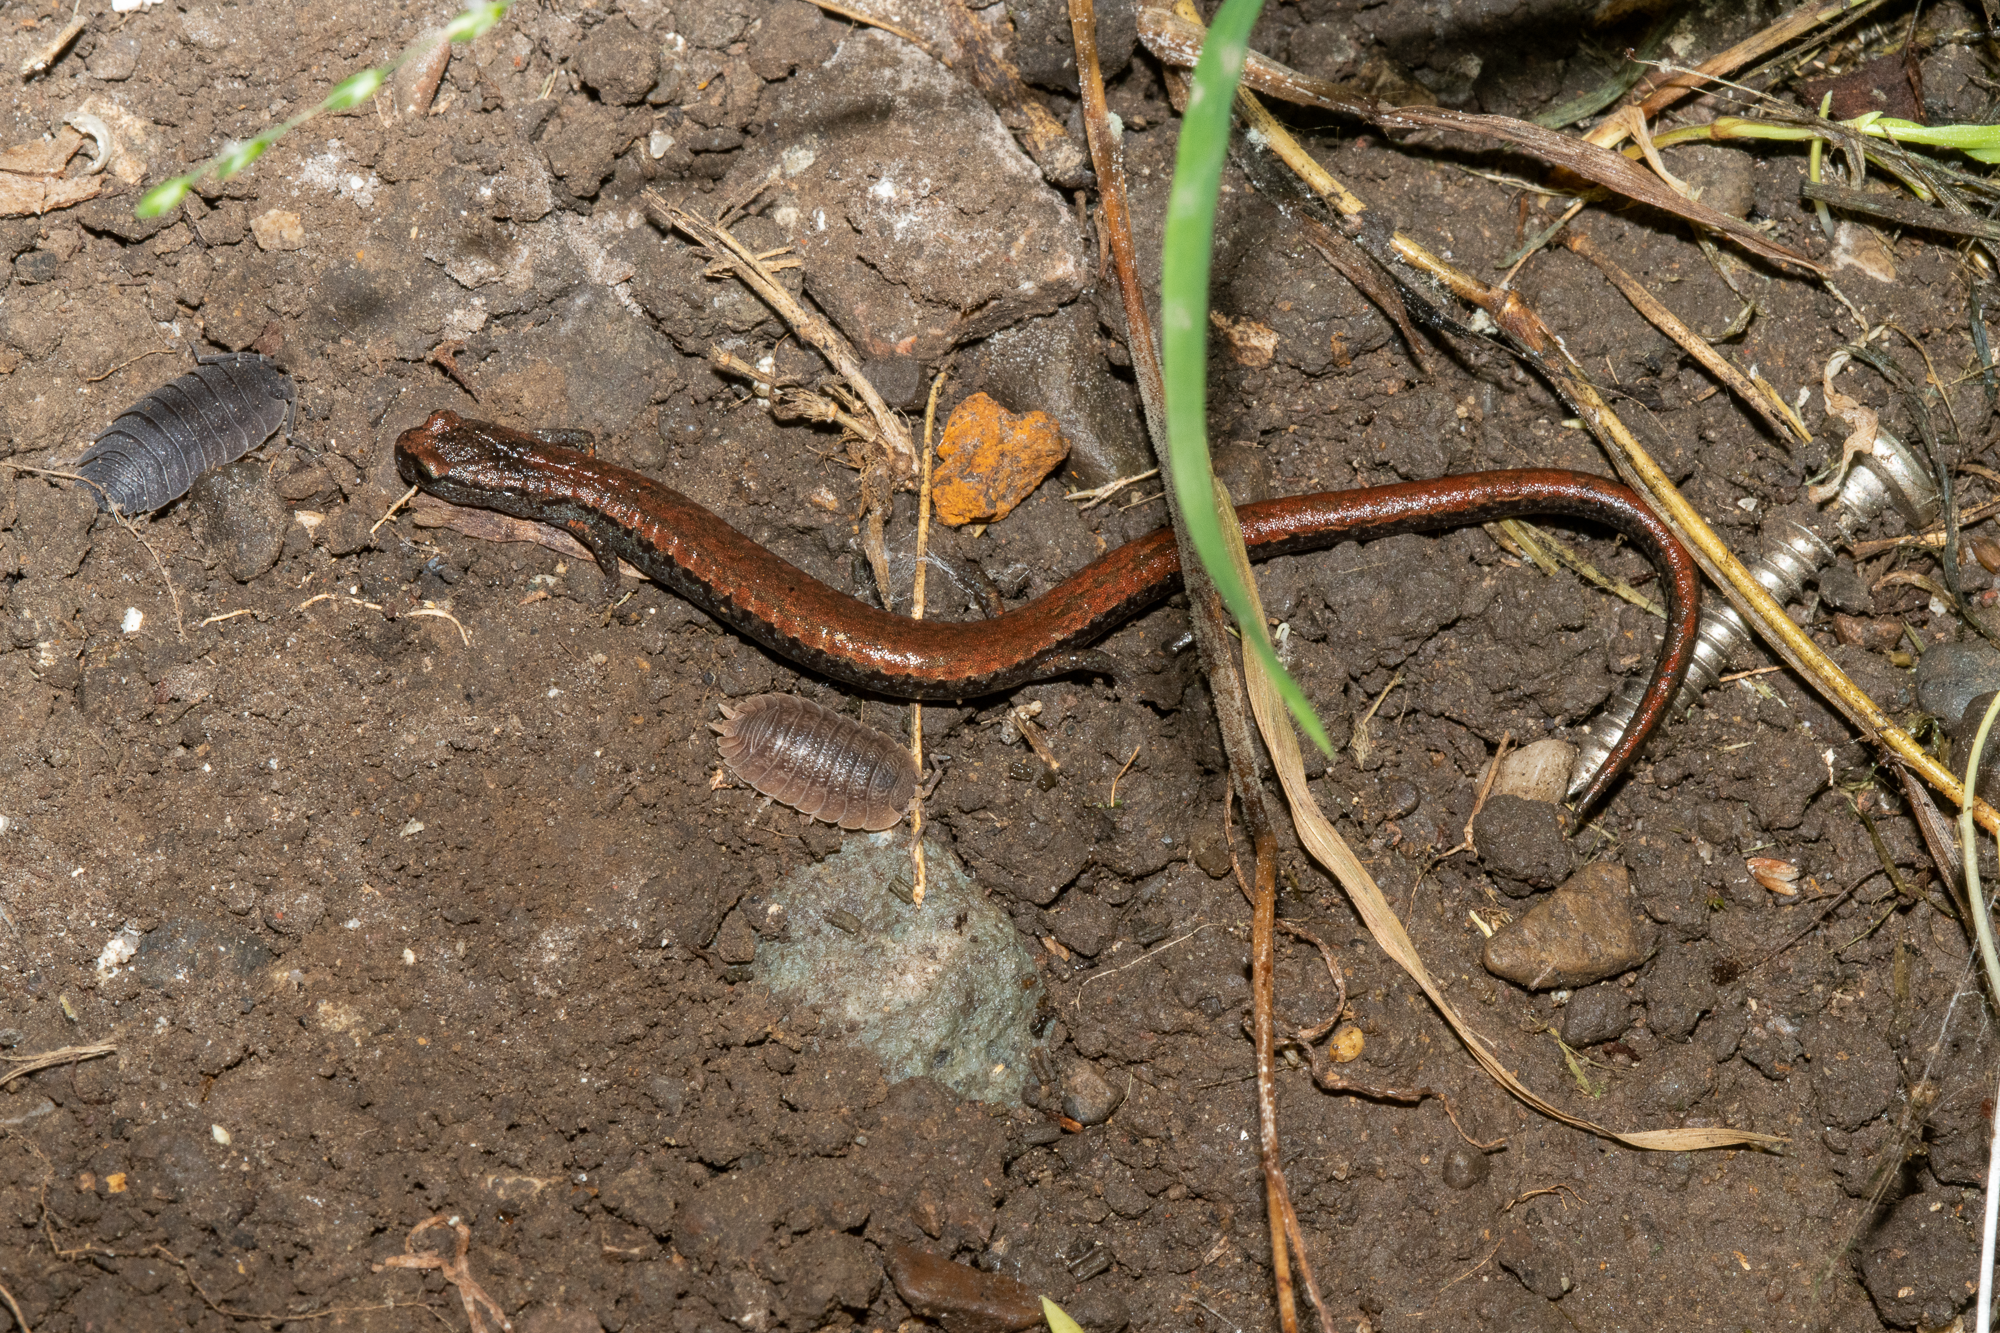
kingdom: Animalia
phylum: Chordata
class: Amphibia
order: Caudata
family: Plethodontidae
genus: Batrachoseps
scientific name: Batrachoseps attenuatus
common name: California slender salamander
